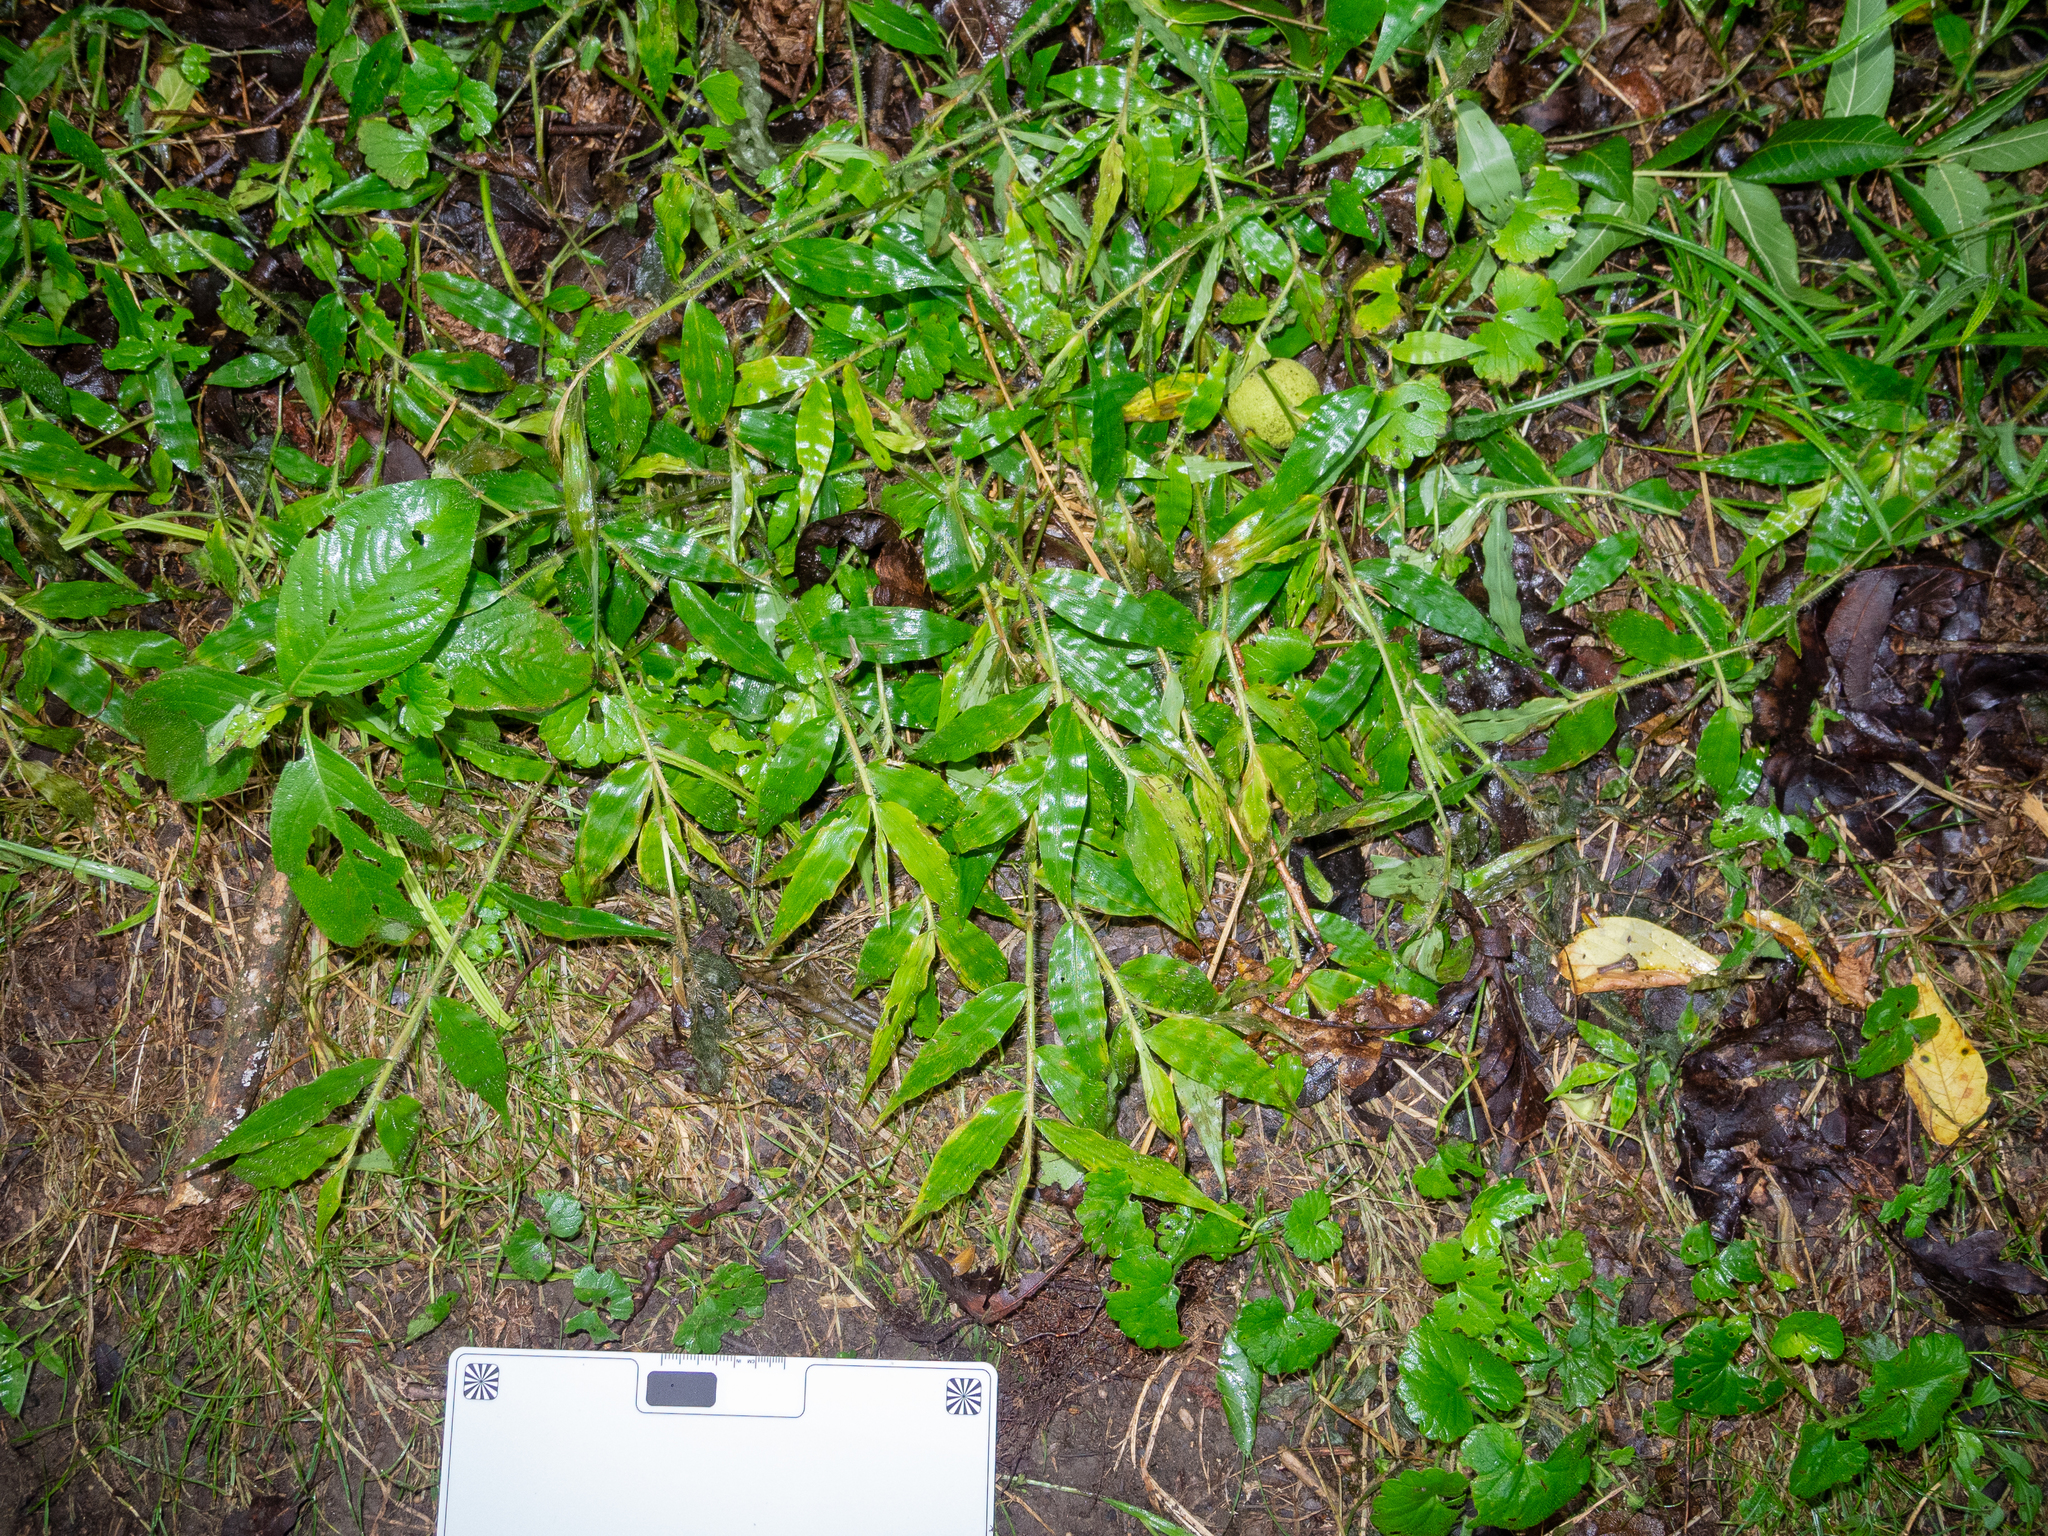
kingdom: Plantae
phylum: Tracheophyta
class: Liliopsida
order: Poales
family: Poaceae
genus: Oplismenus
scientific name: Oplismenus undulatifolius
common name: Wavyleaf basketgrass
